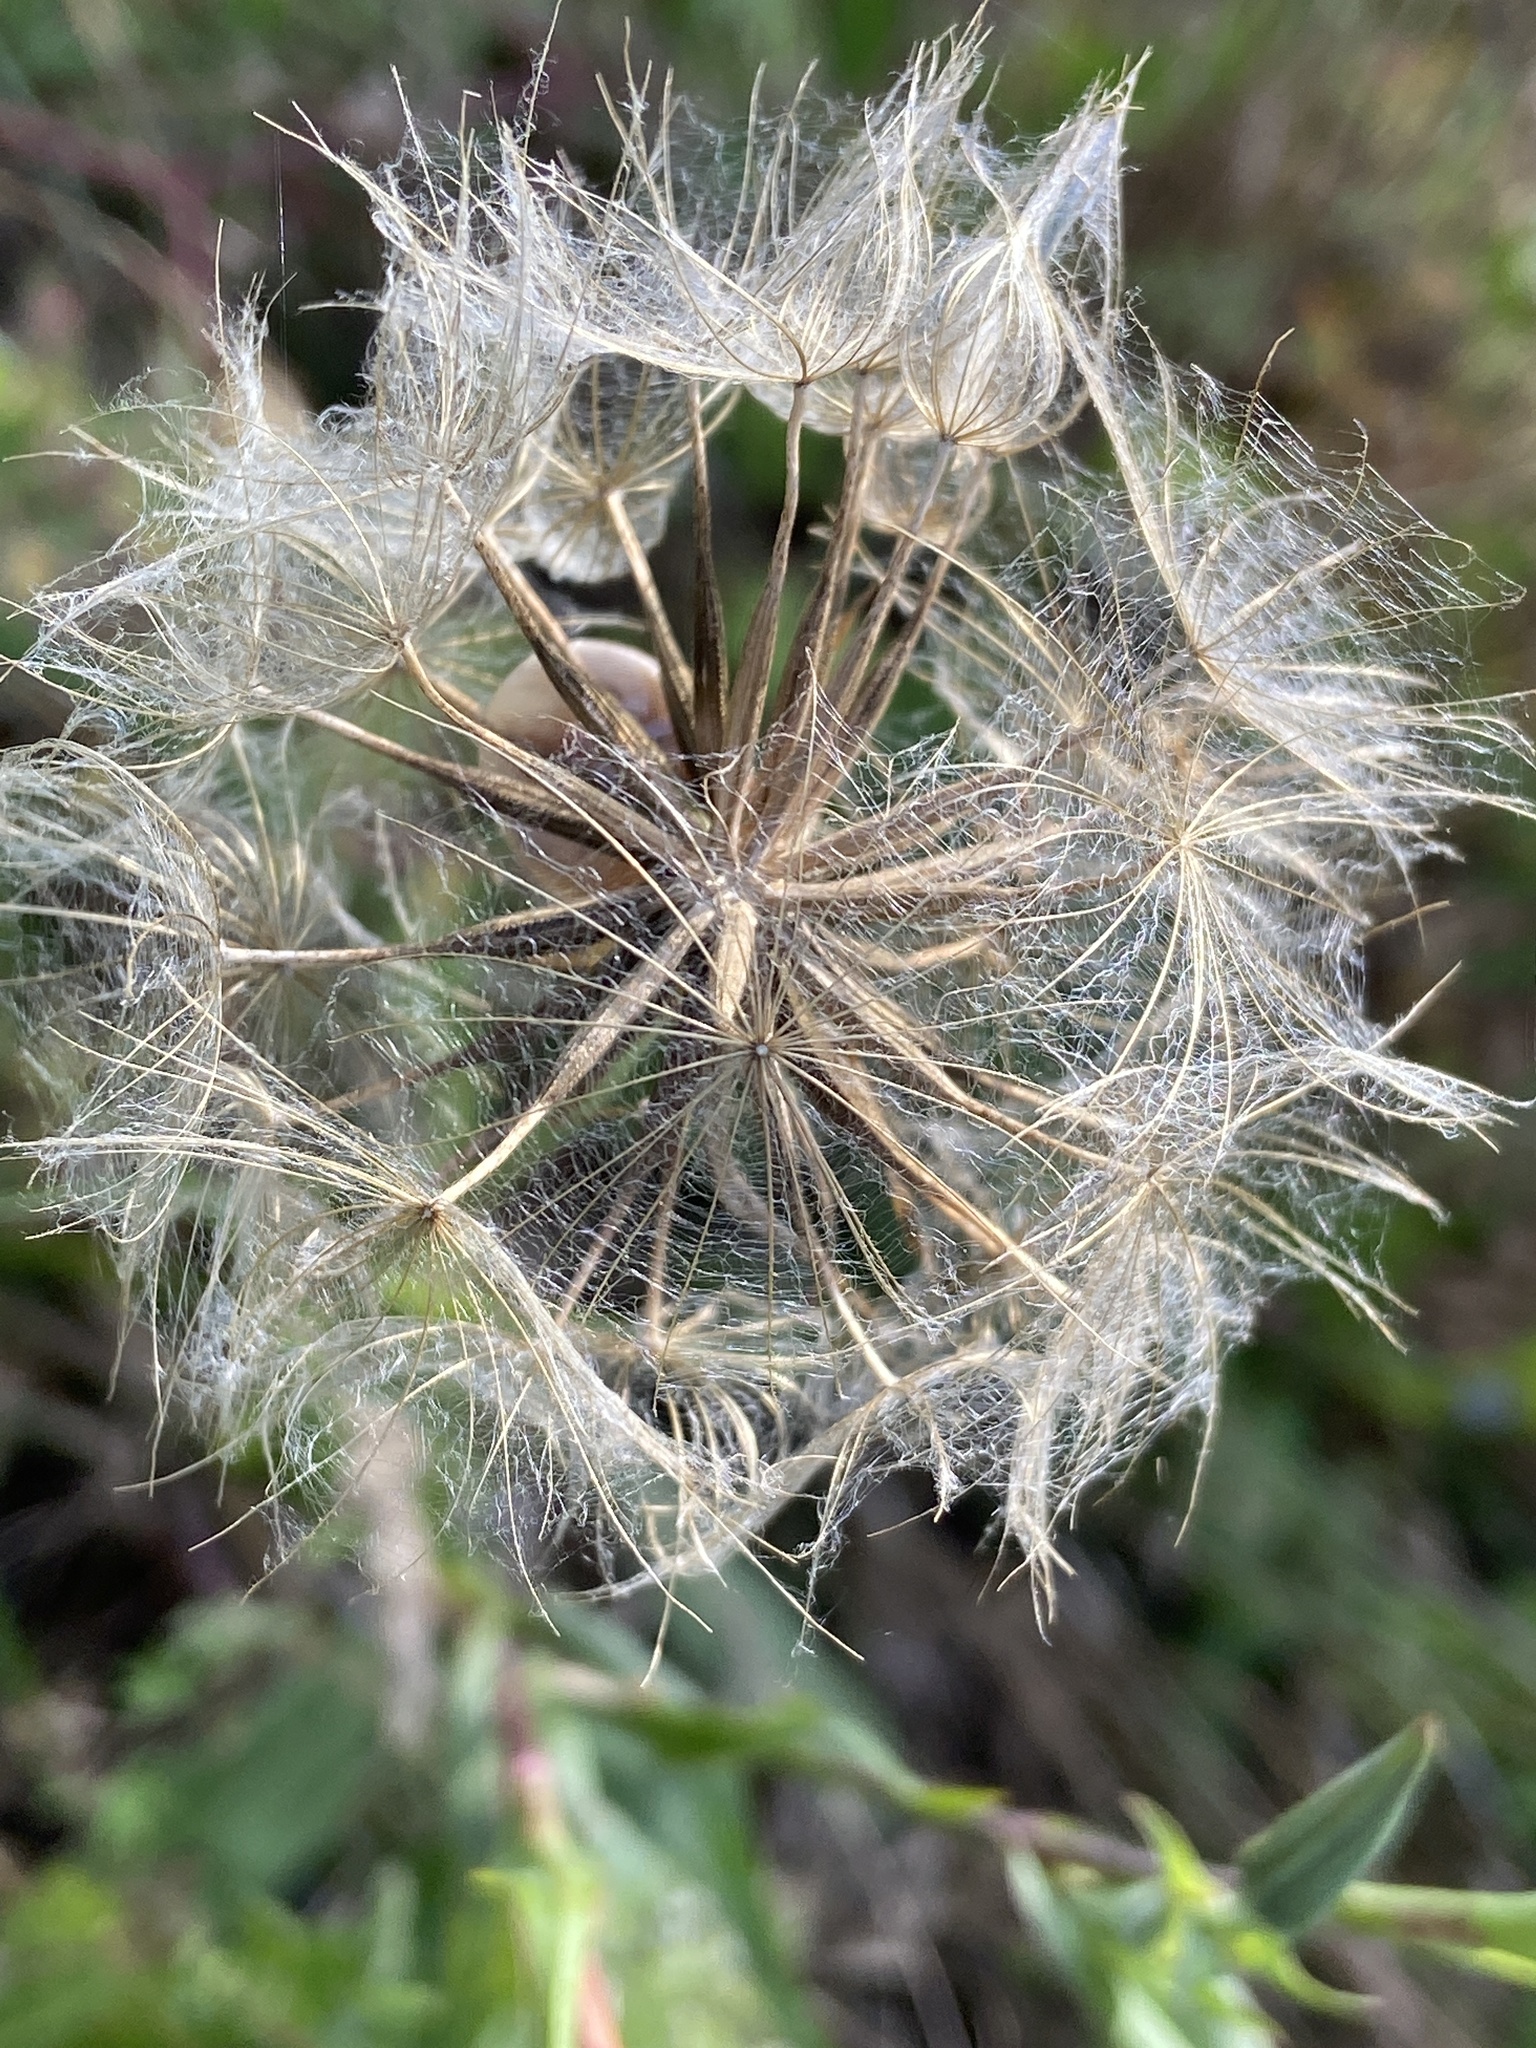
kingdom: Plantae
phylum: Tracheophyta
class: Magnoliopsida
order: Asterales
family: Asteraceae
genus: Tragopogon
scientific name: Tragopogon pratensis
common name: Goat's-beard
